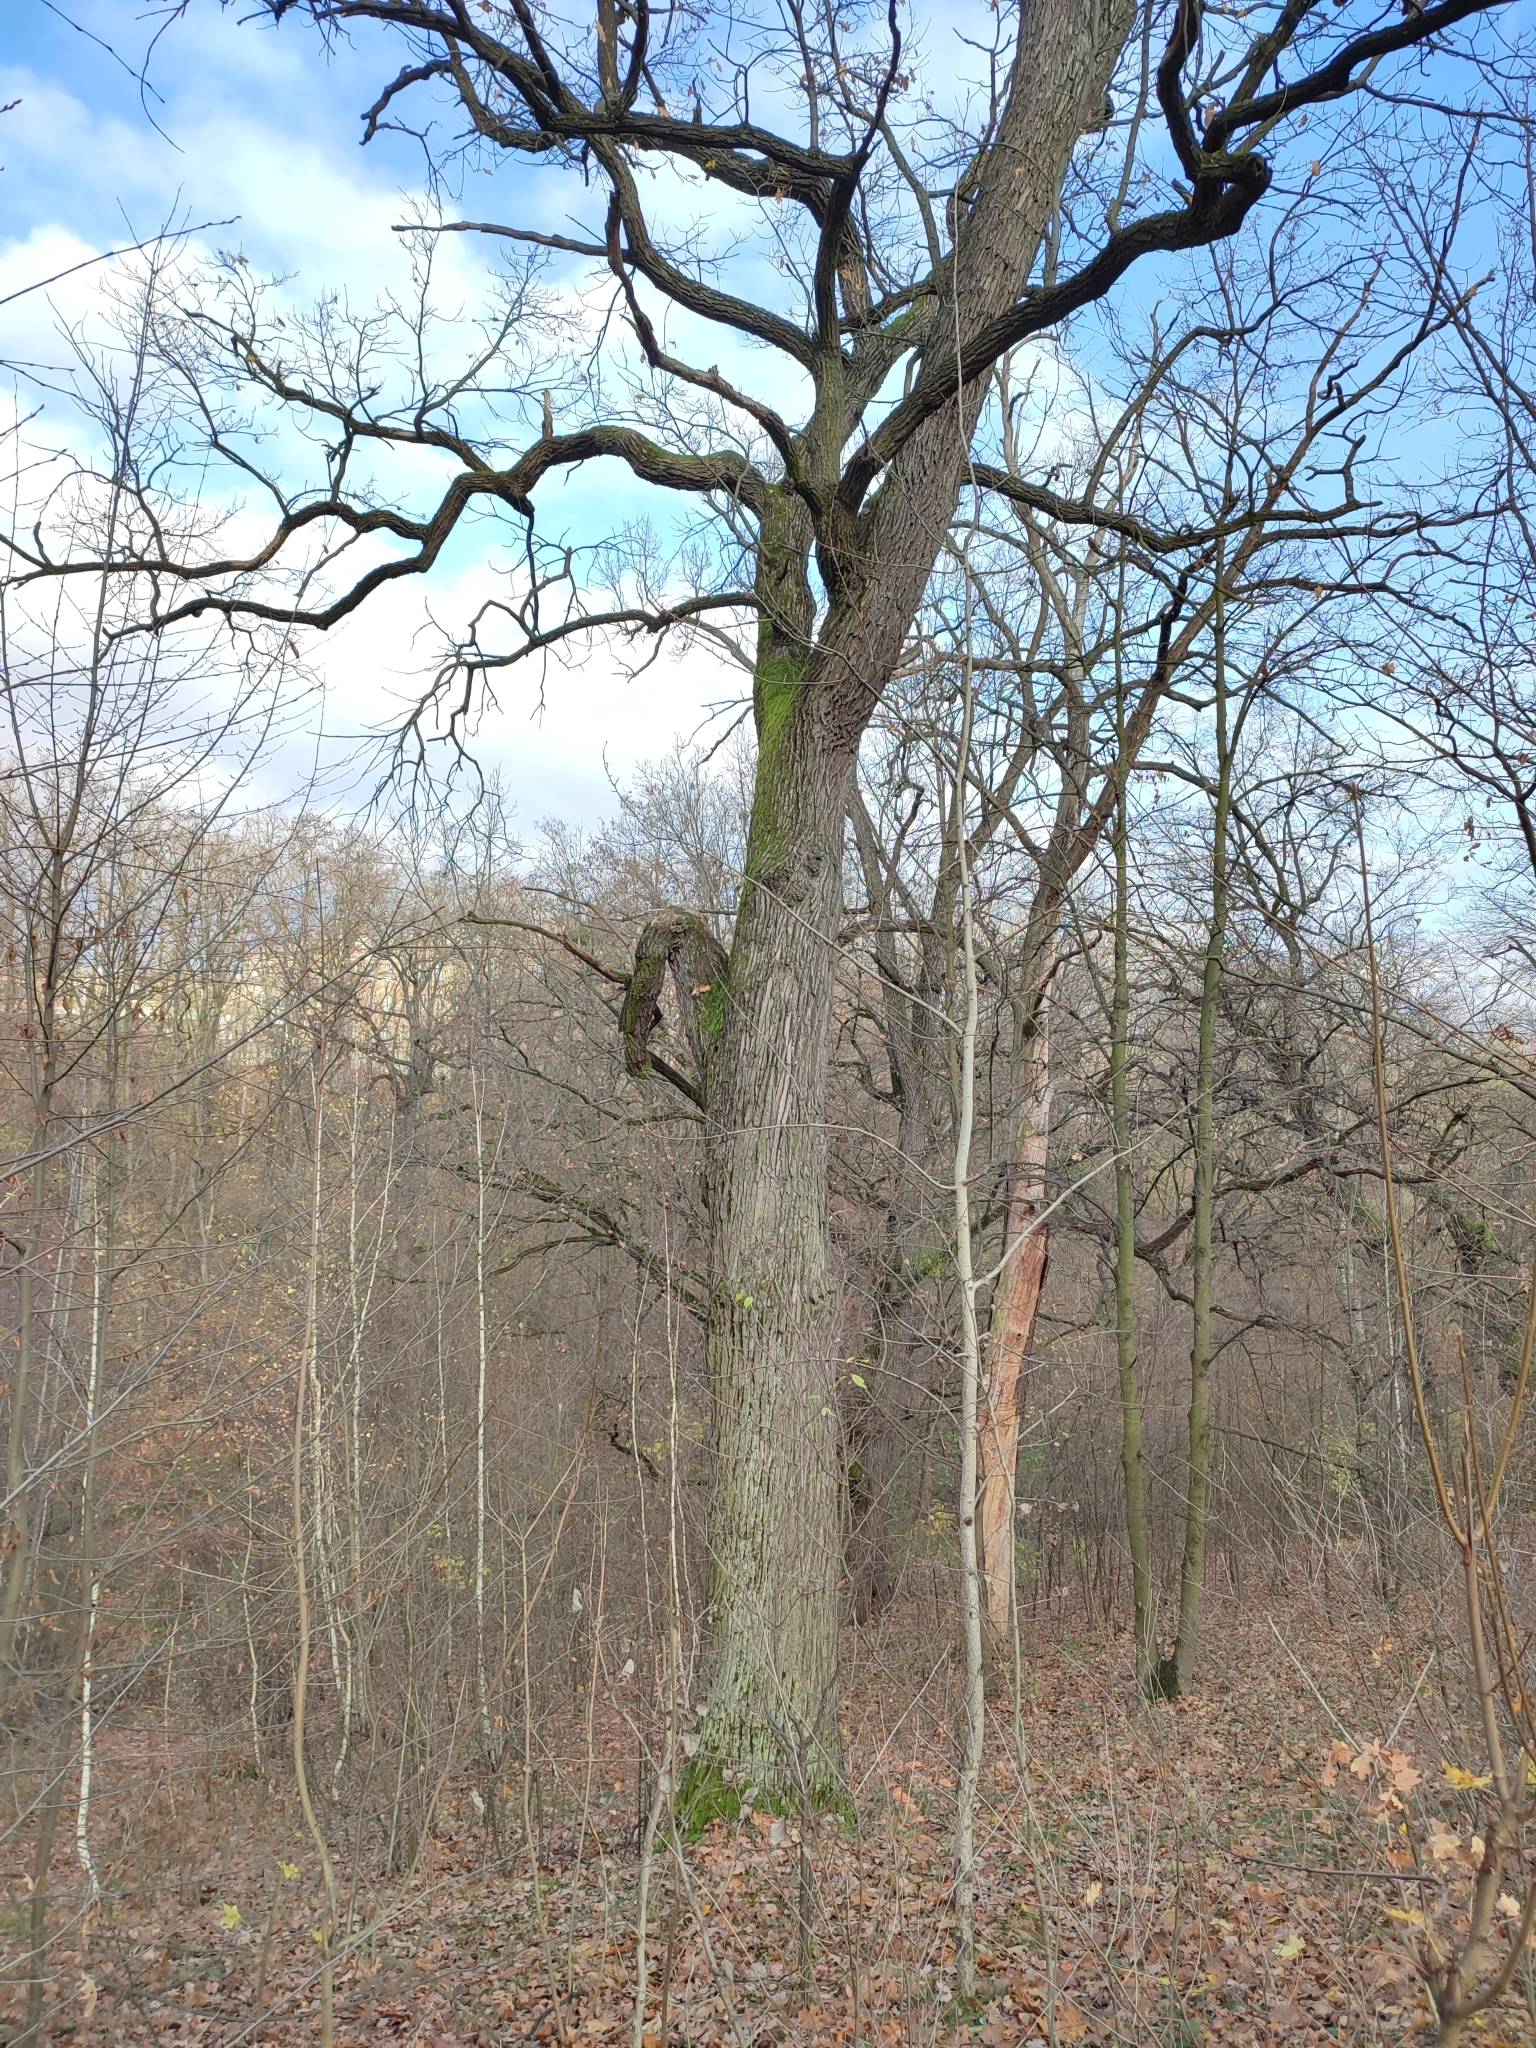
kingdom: Plantae
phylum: Tracheophyta
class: Magnoliopsida
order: Fagales
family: Fagaceae
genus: Quercus
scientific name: Quercus robur
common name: Pedunculate oak
